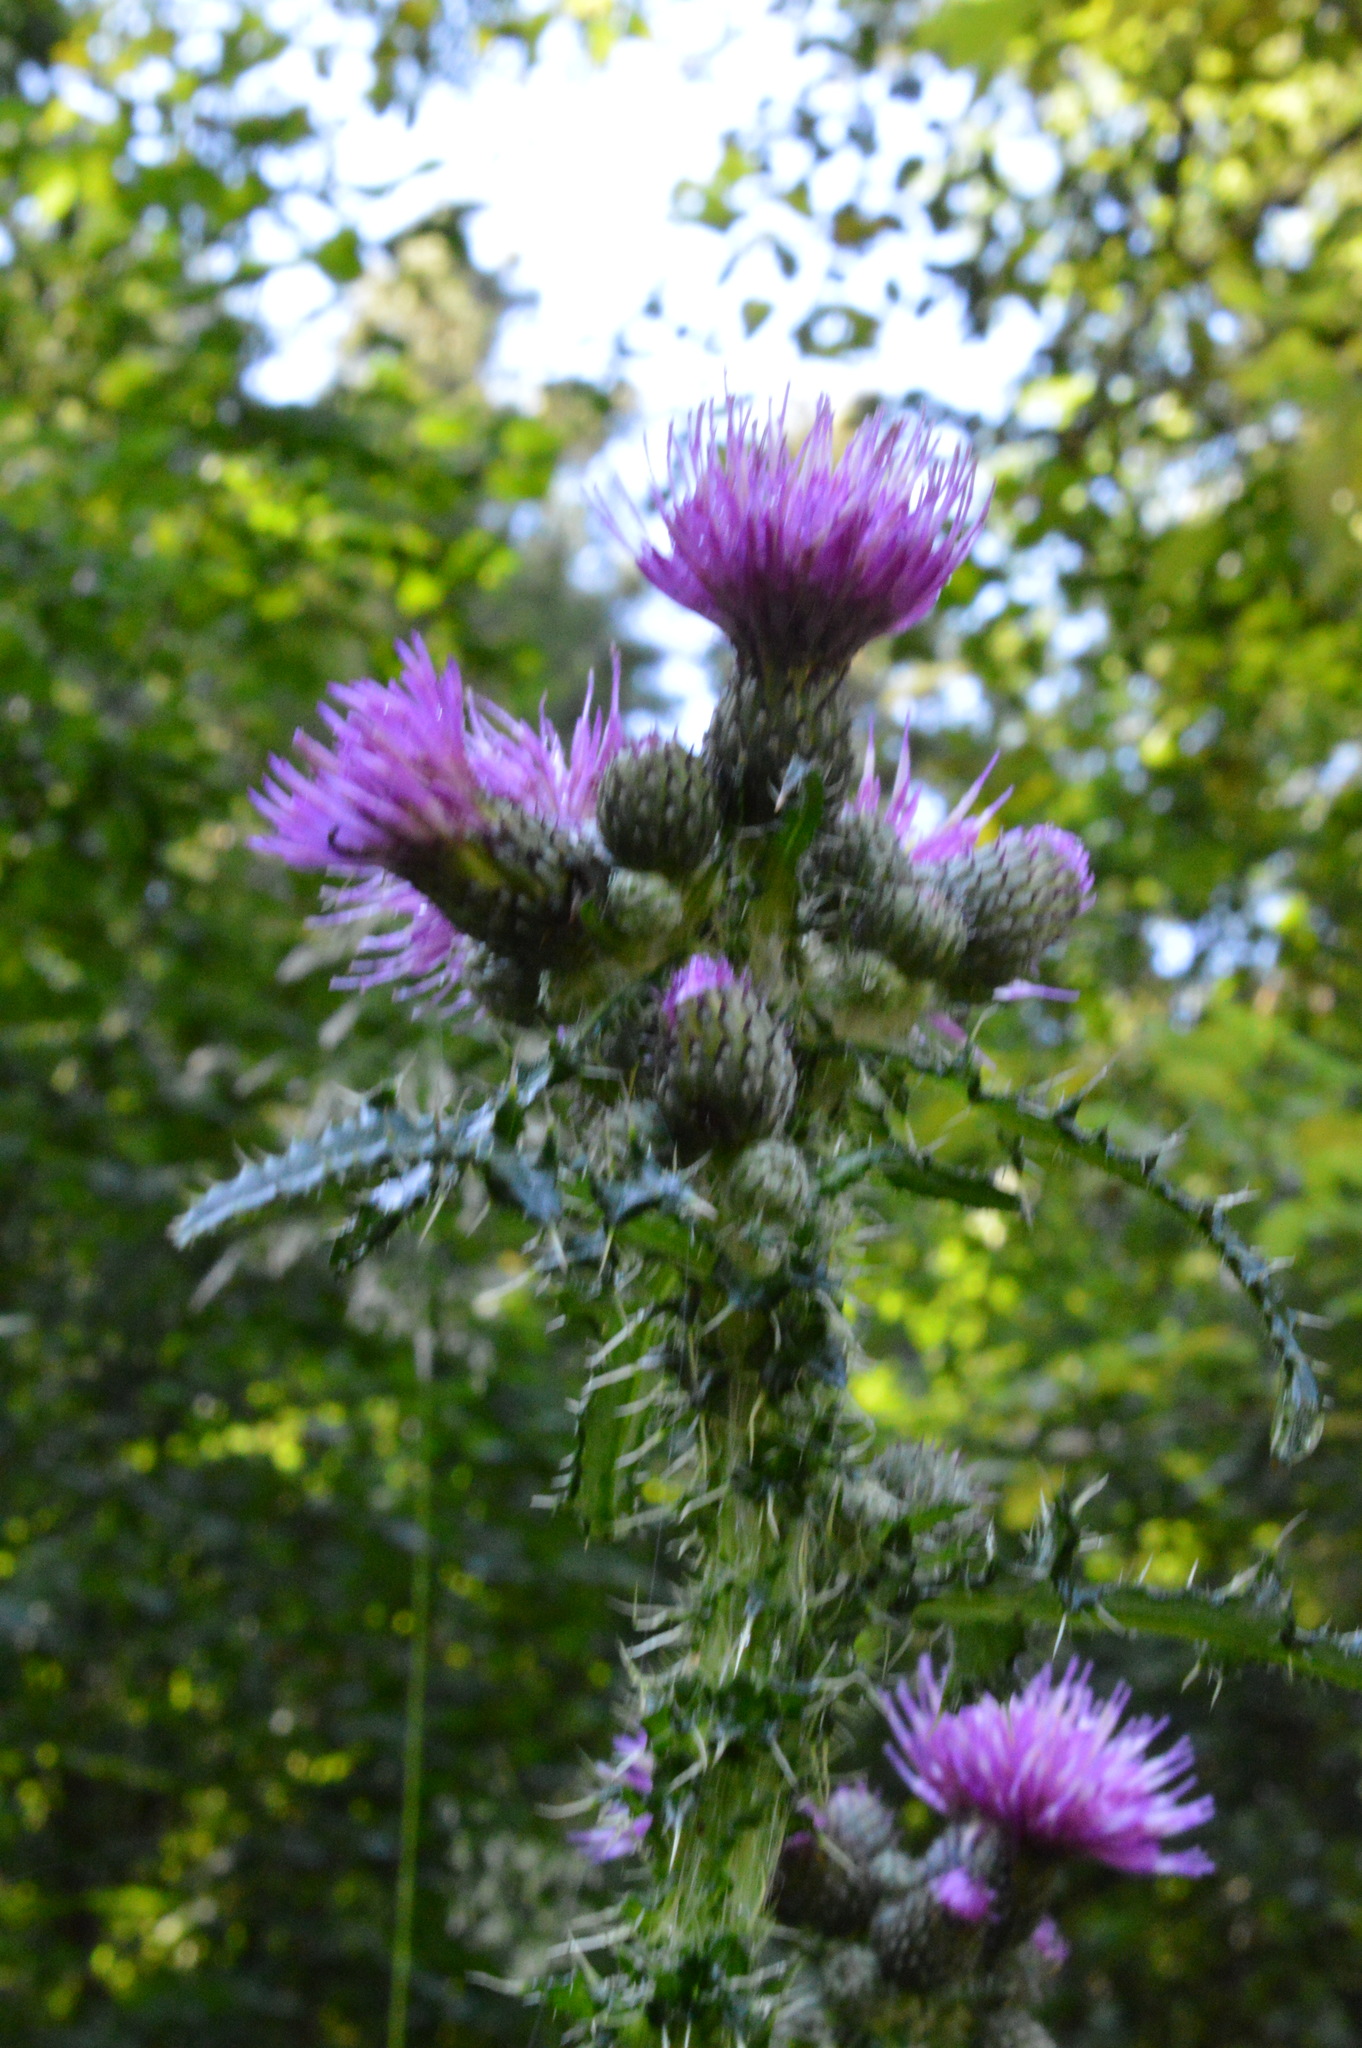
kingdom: Plantae
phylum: Tracheophyta
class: Magnoliopsida
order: Asterales
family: Asteraceae
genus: Cirsium
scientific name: Cirsium palustre
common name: Marsh thistle
